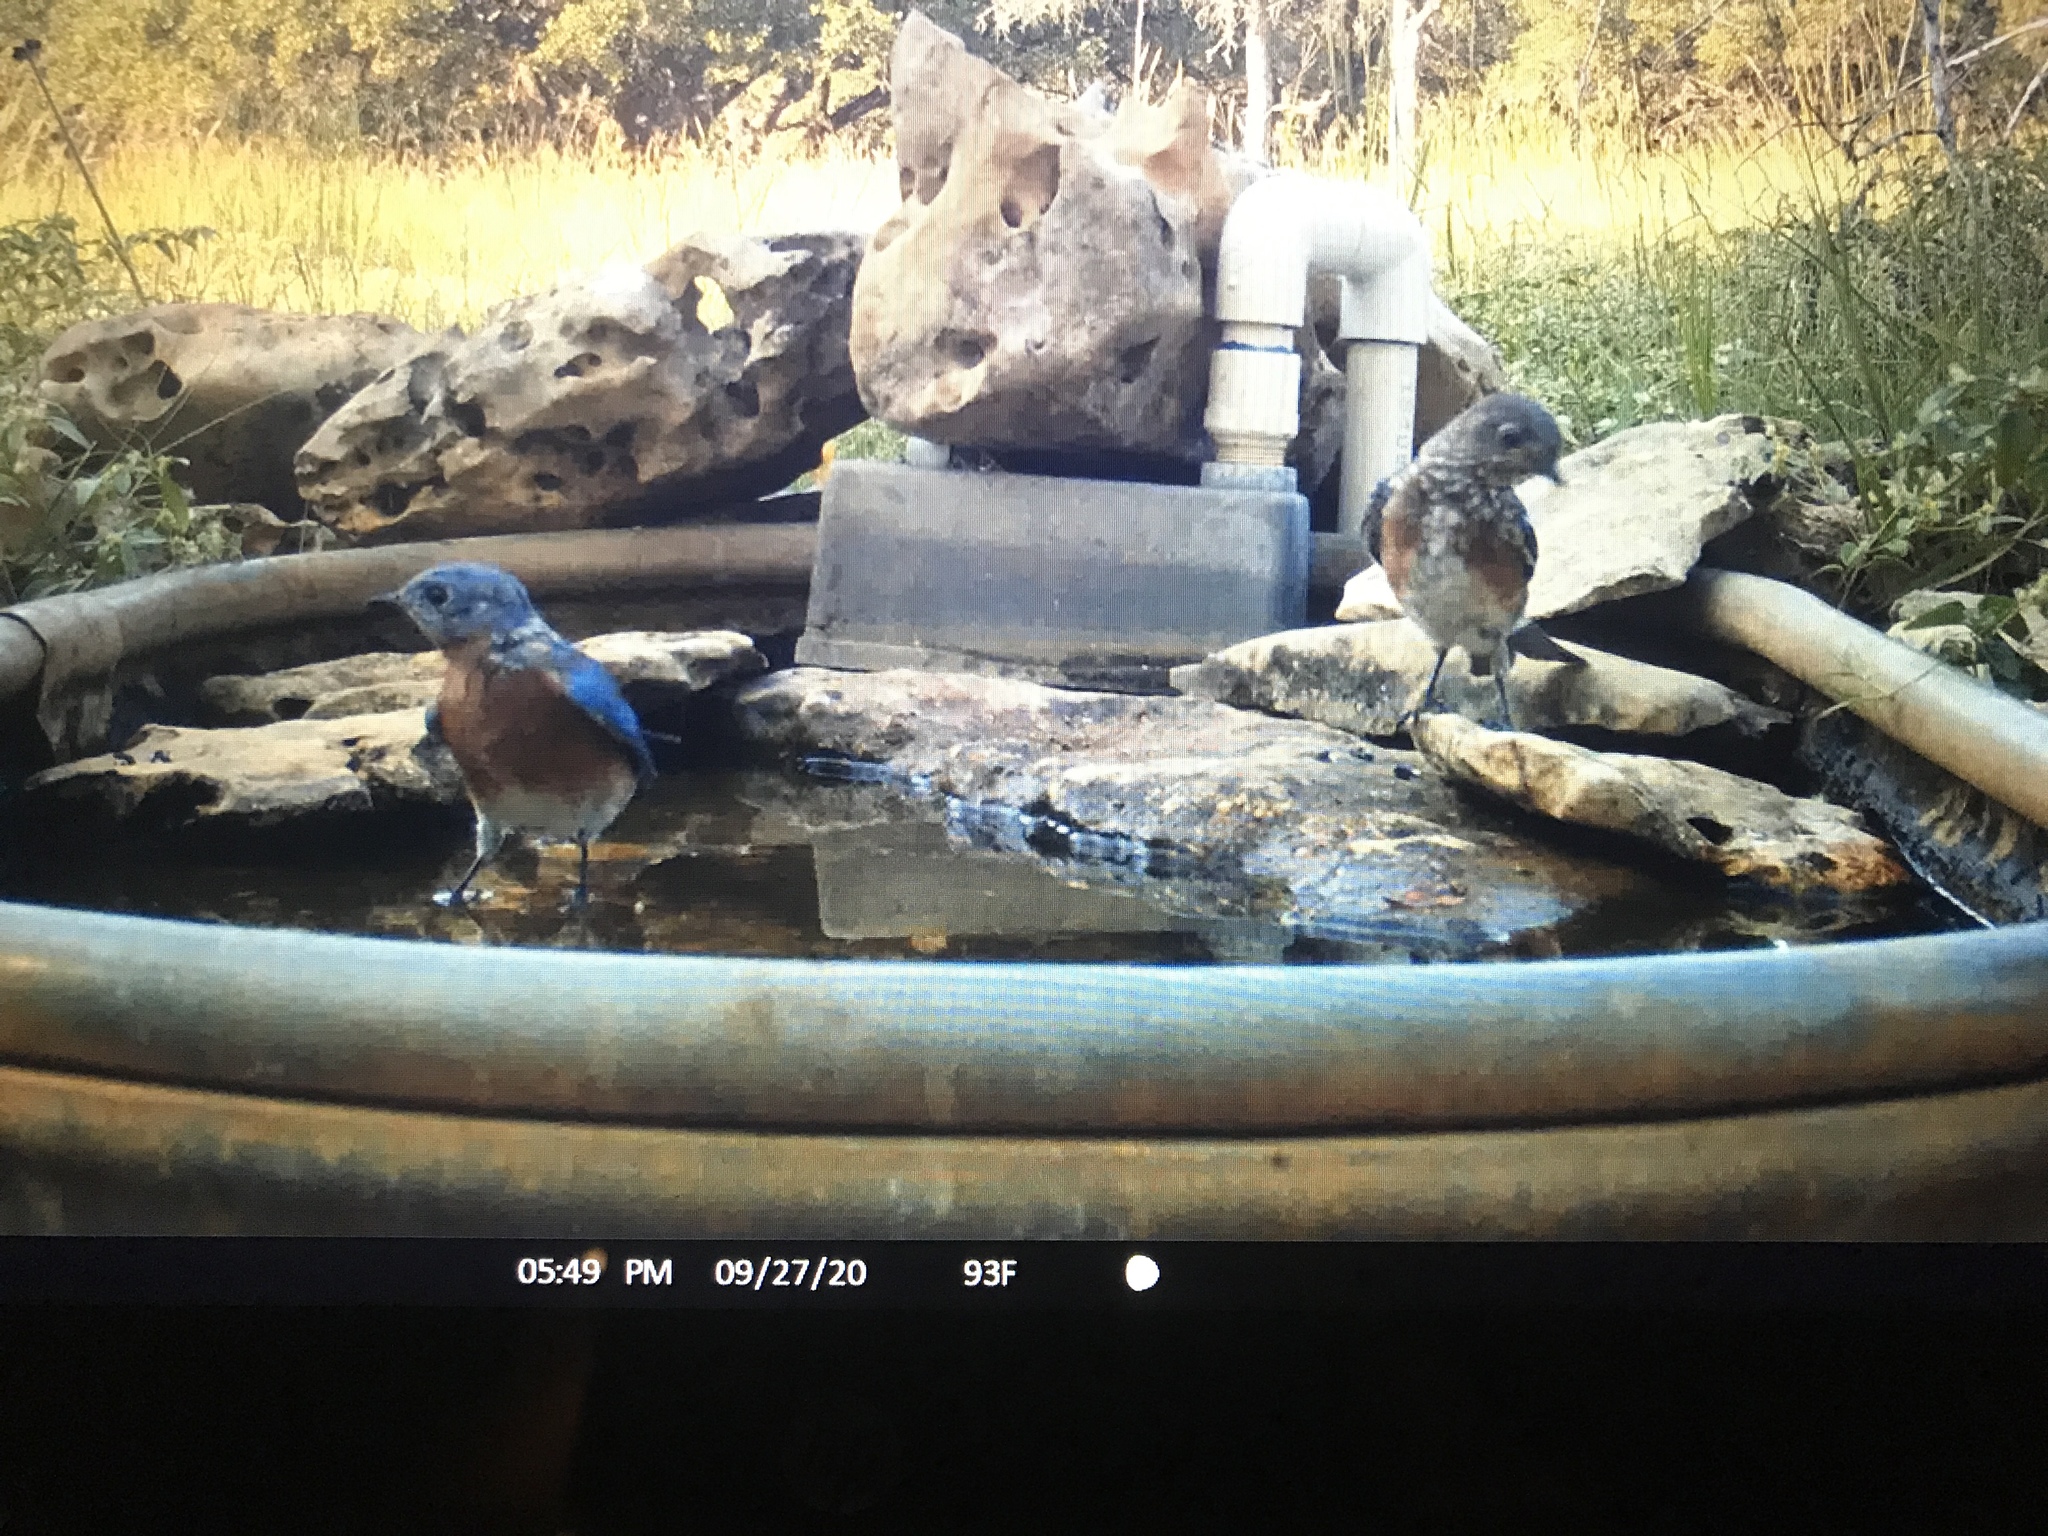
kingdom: Animalia
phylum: Chordata
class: Aves
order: Passeriformes
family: Turdidae
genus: Sialia
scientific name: Sialia sialis
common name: Eastern bluebird
